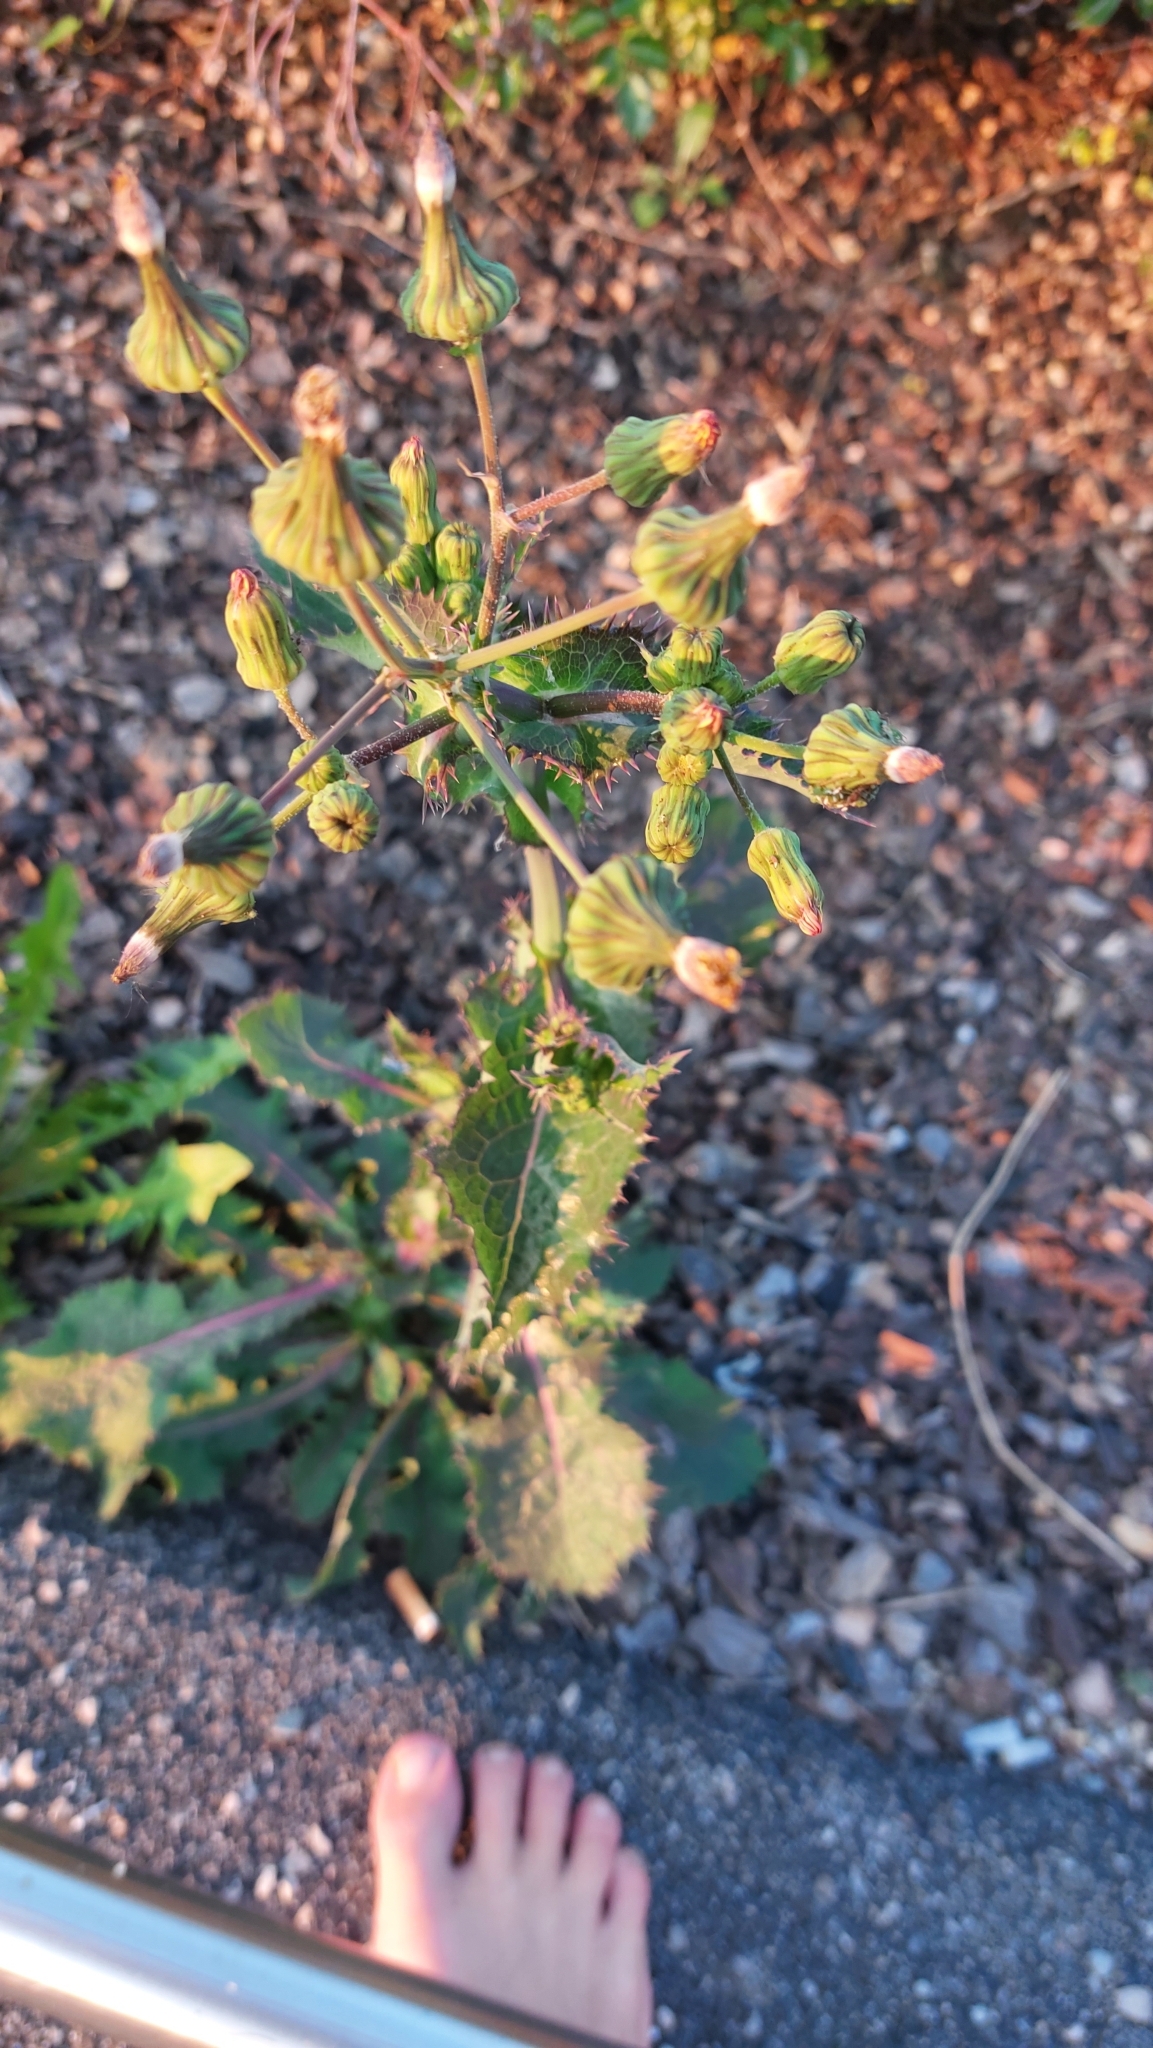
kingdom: Plantae
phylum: Tracheophyta
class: Magnoliopsida
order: Asterales
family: Asteraceae
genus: Sonchus
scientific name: Sonchus asper
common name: Prickly sow-thistle
